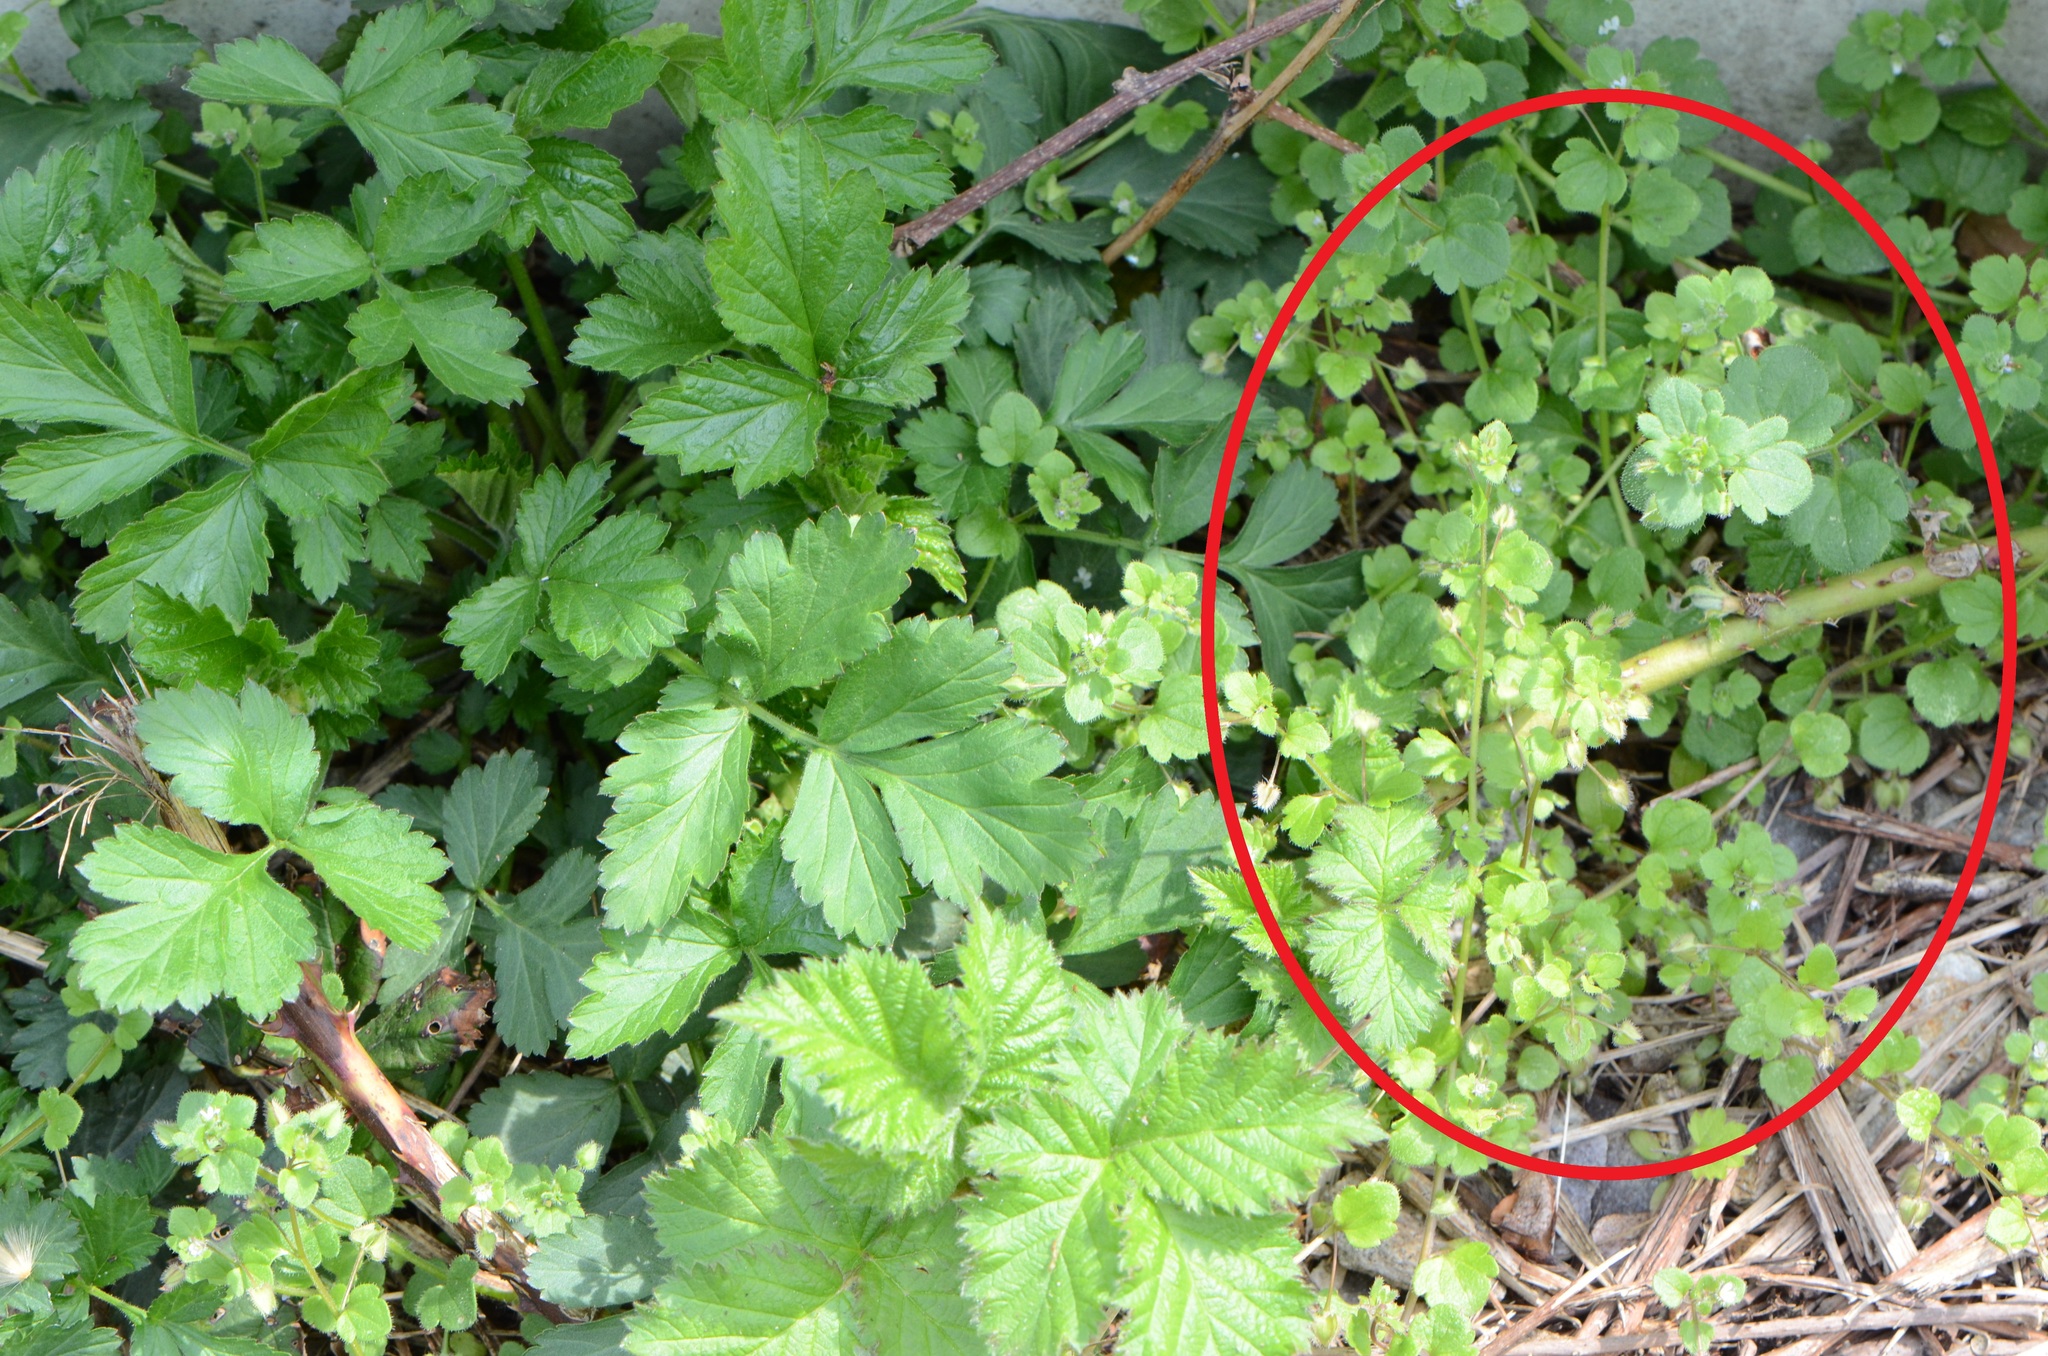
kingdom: Plantae
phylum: Tracheophyta
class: Magnoliopsida
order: Lamiales
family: Plantaginaceae
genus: Veronica
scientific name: Veronica sublobata
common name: False ivy-leaved speedwell
